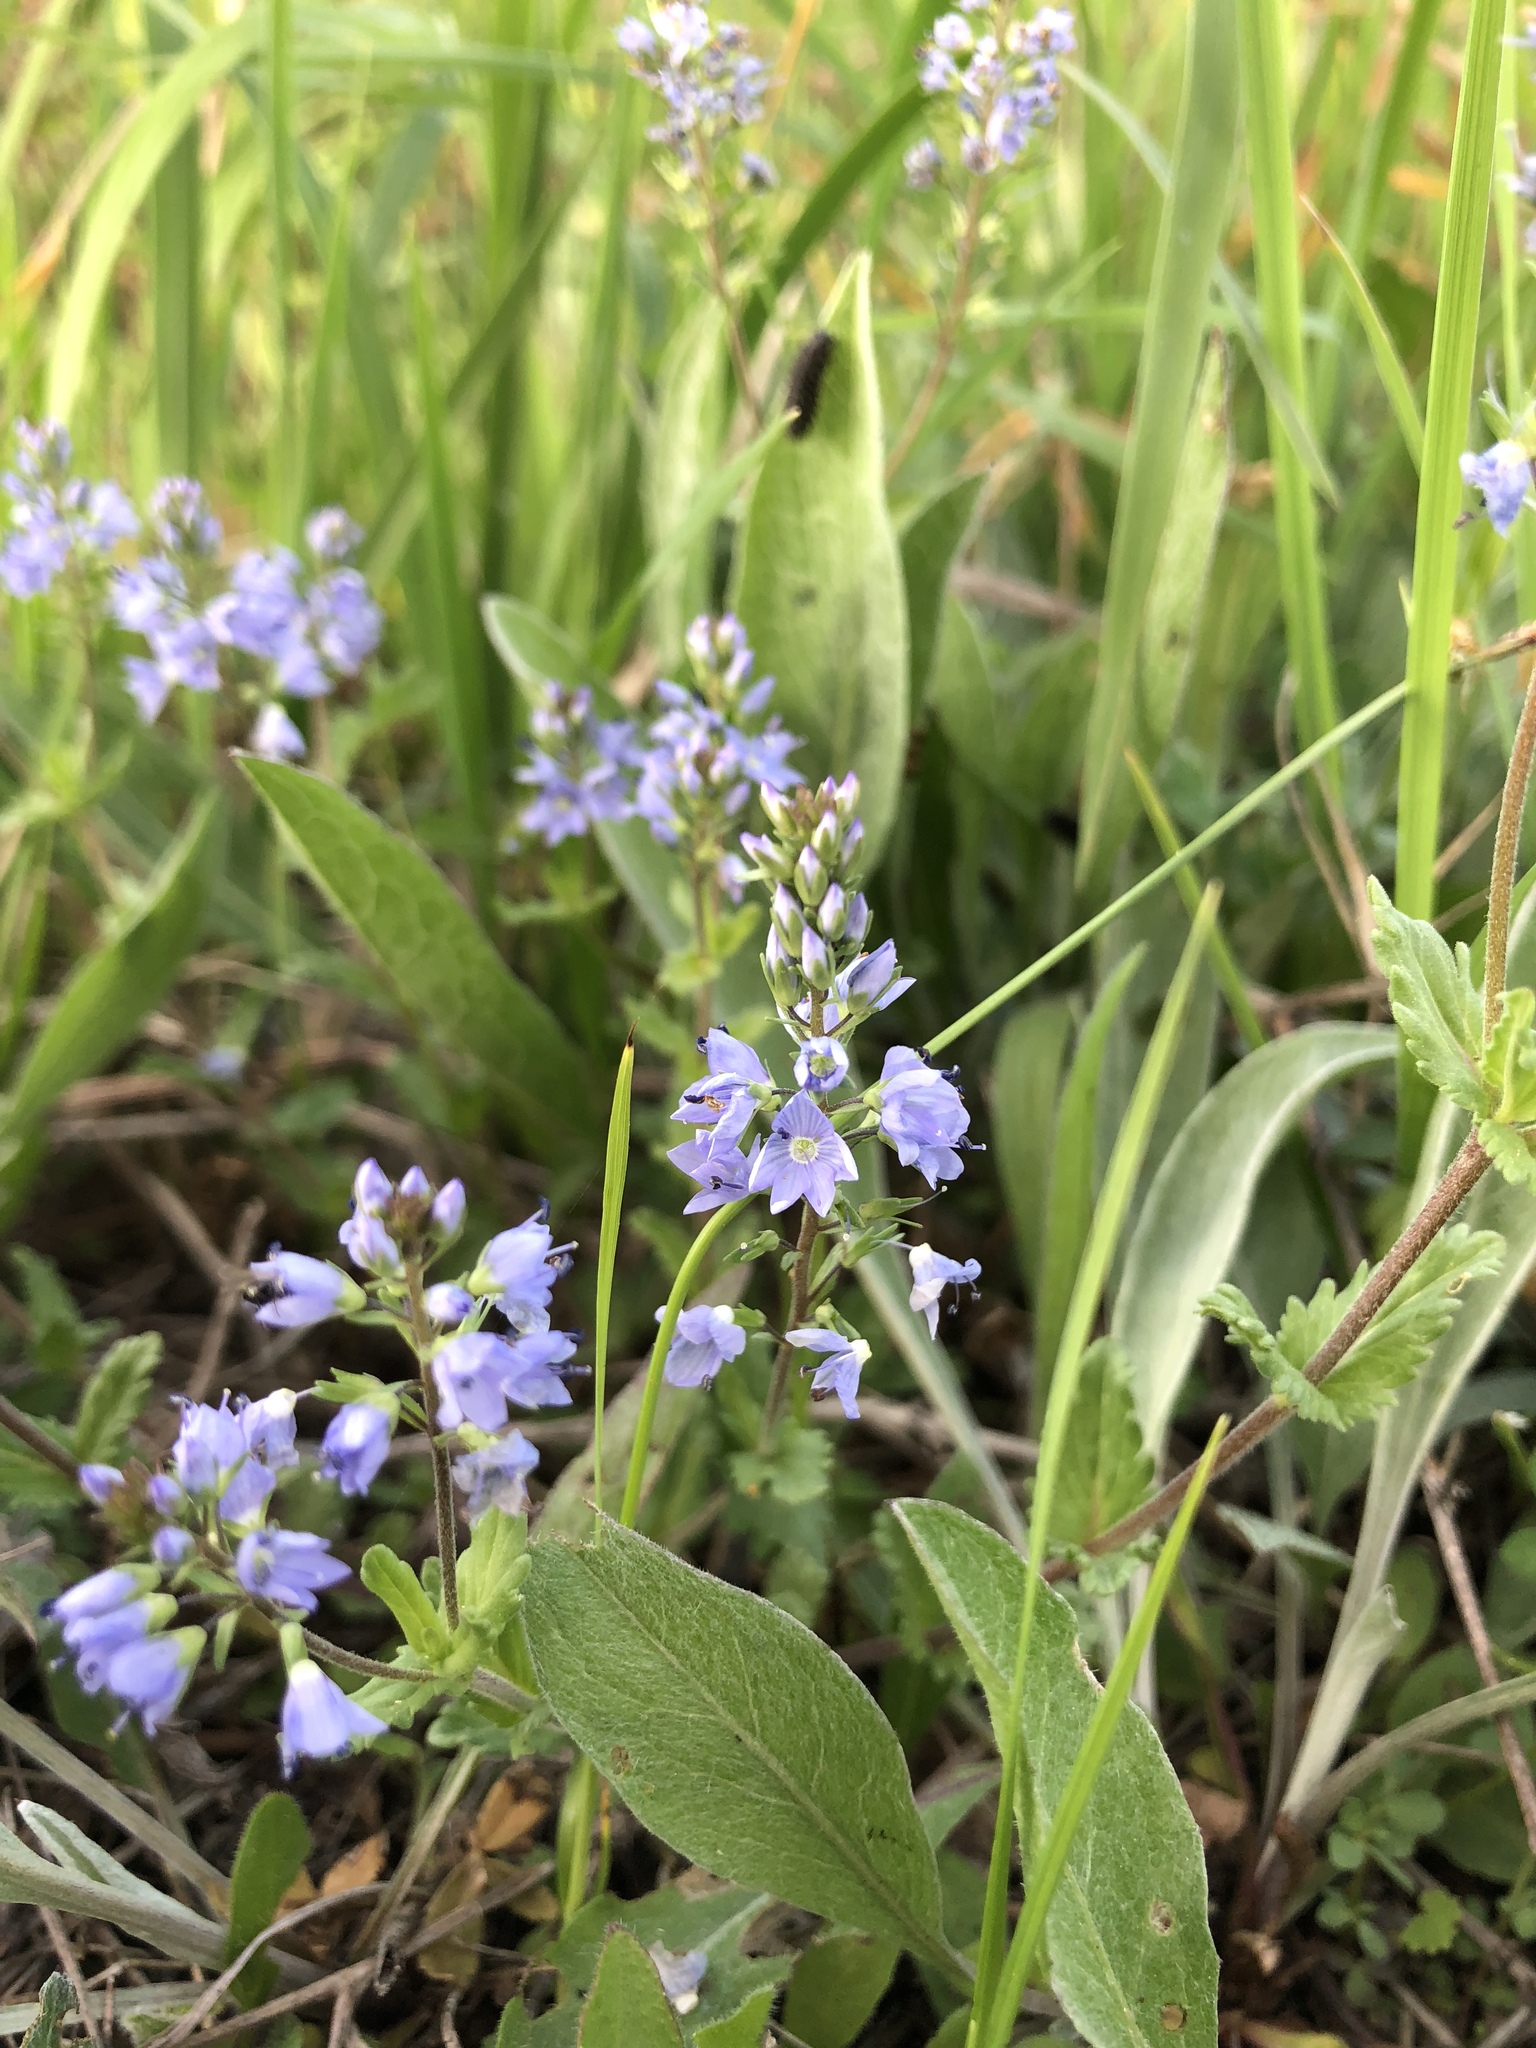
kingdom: Plantae
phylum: Tracheophyta
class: Magnoliopsida
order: Lamiales
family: Plantaginaceae
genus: Veronica
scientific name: Veronica prostrata
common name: Prostrate speedwell
